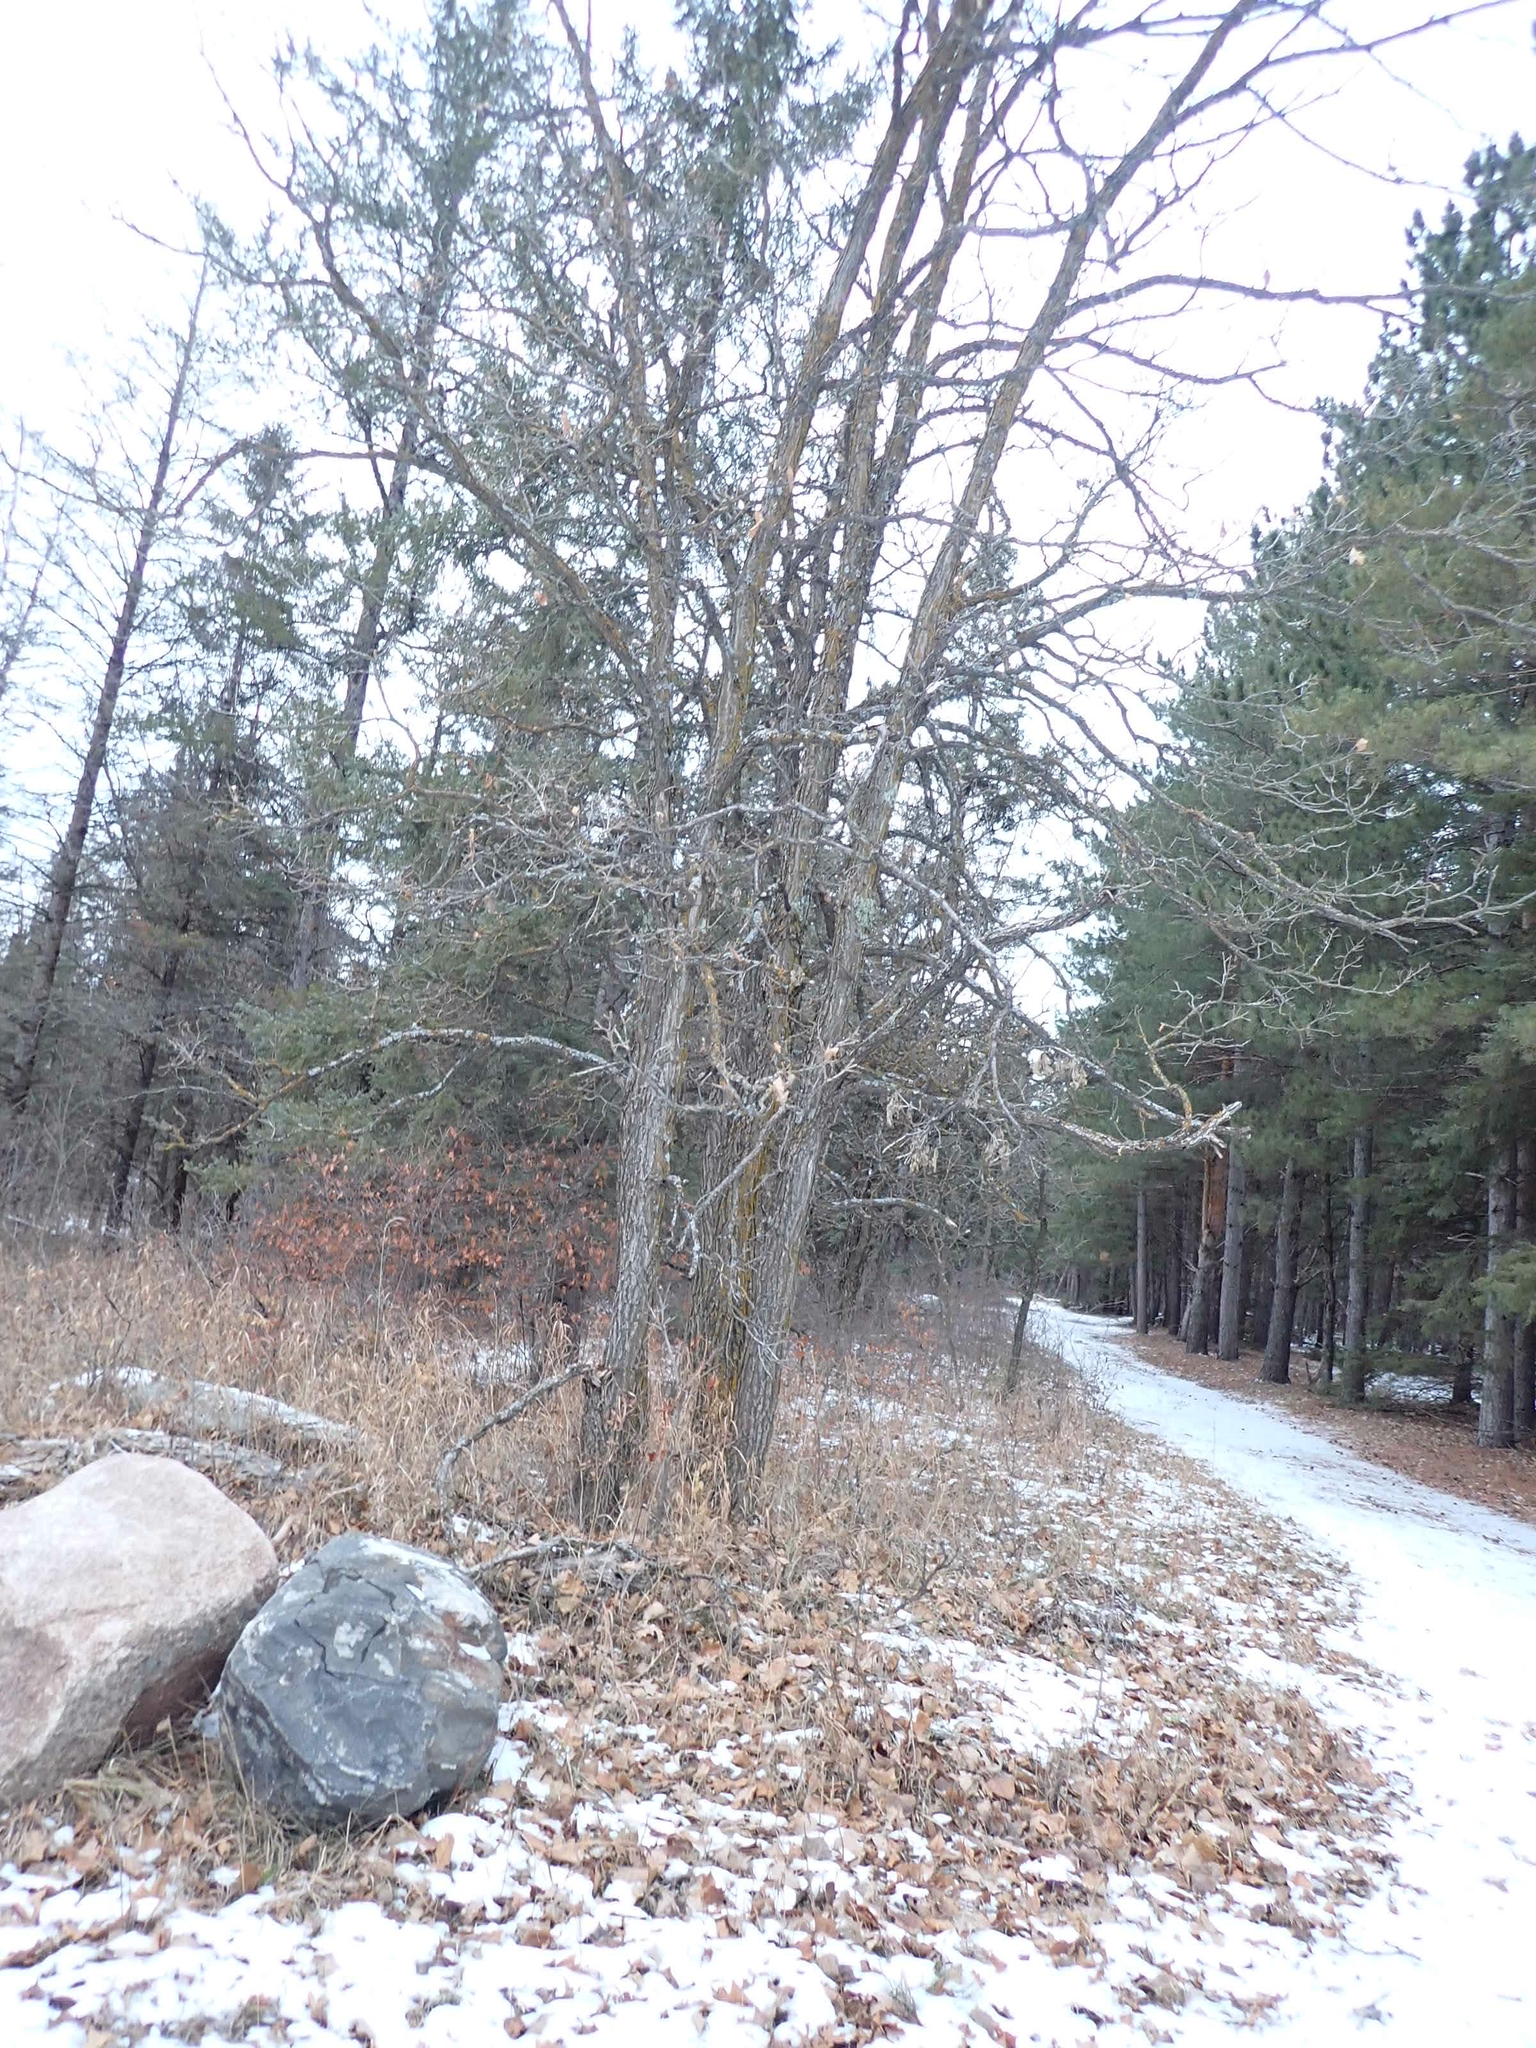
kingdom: Plantae
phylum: Tracheophyta
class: Magnoliopsida
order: Fagales
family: Fagaceae
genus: Quercus
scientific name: Quercus macrocarpa
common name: Bur oak
